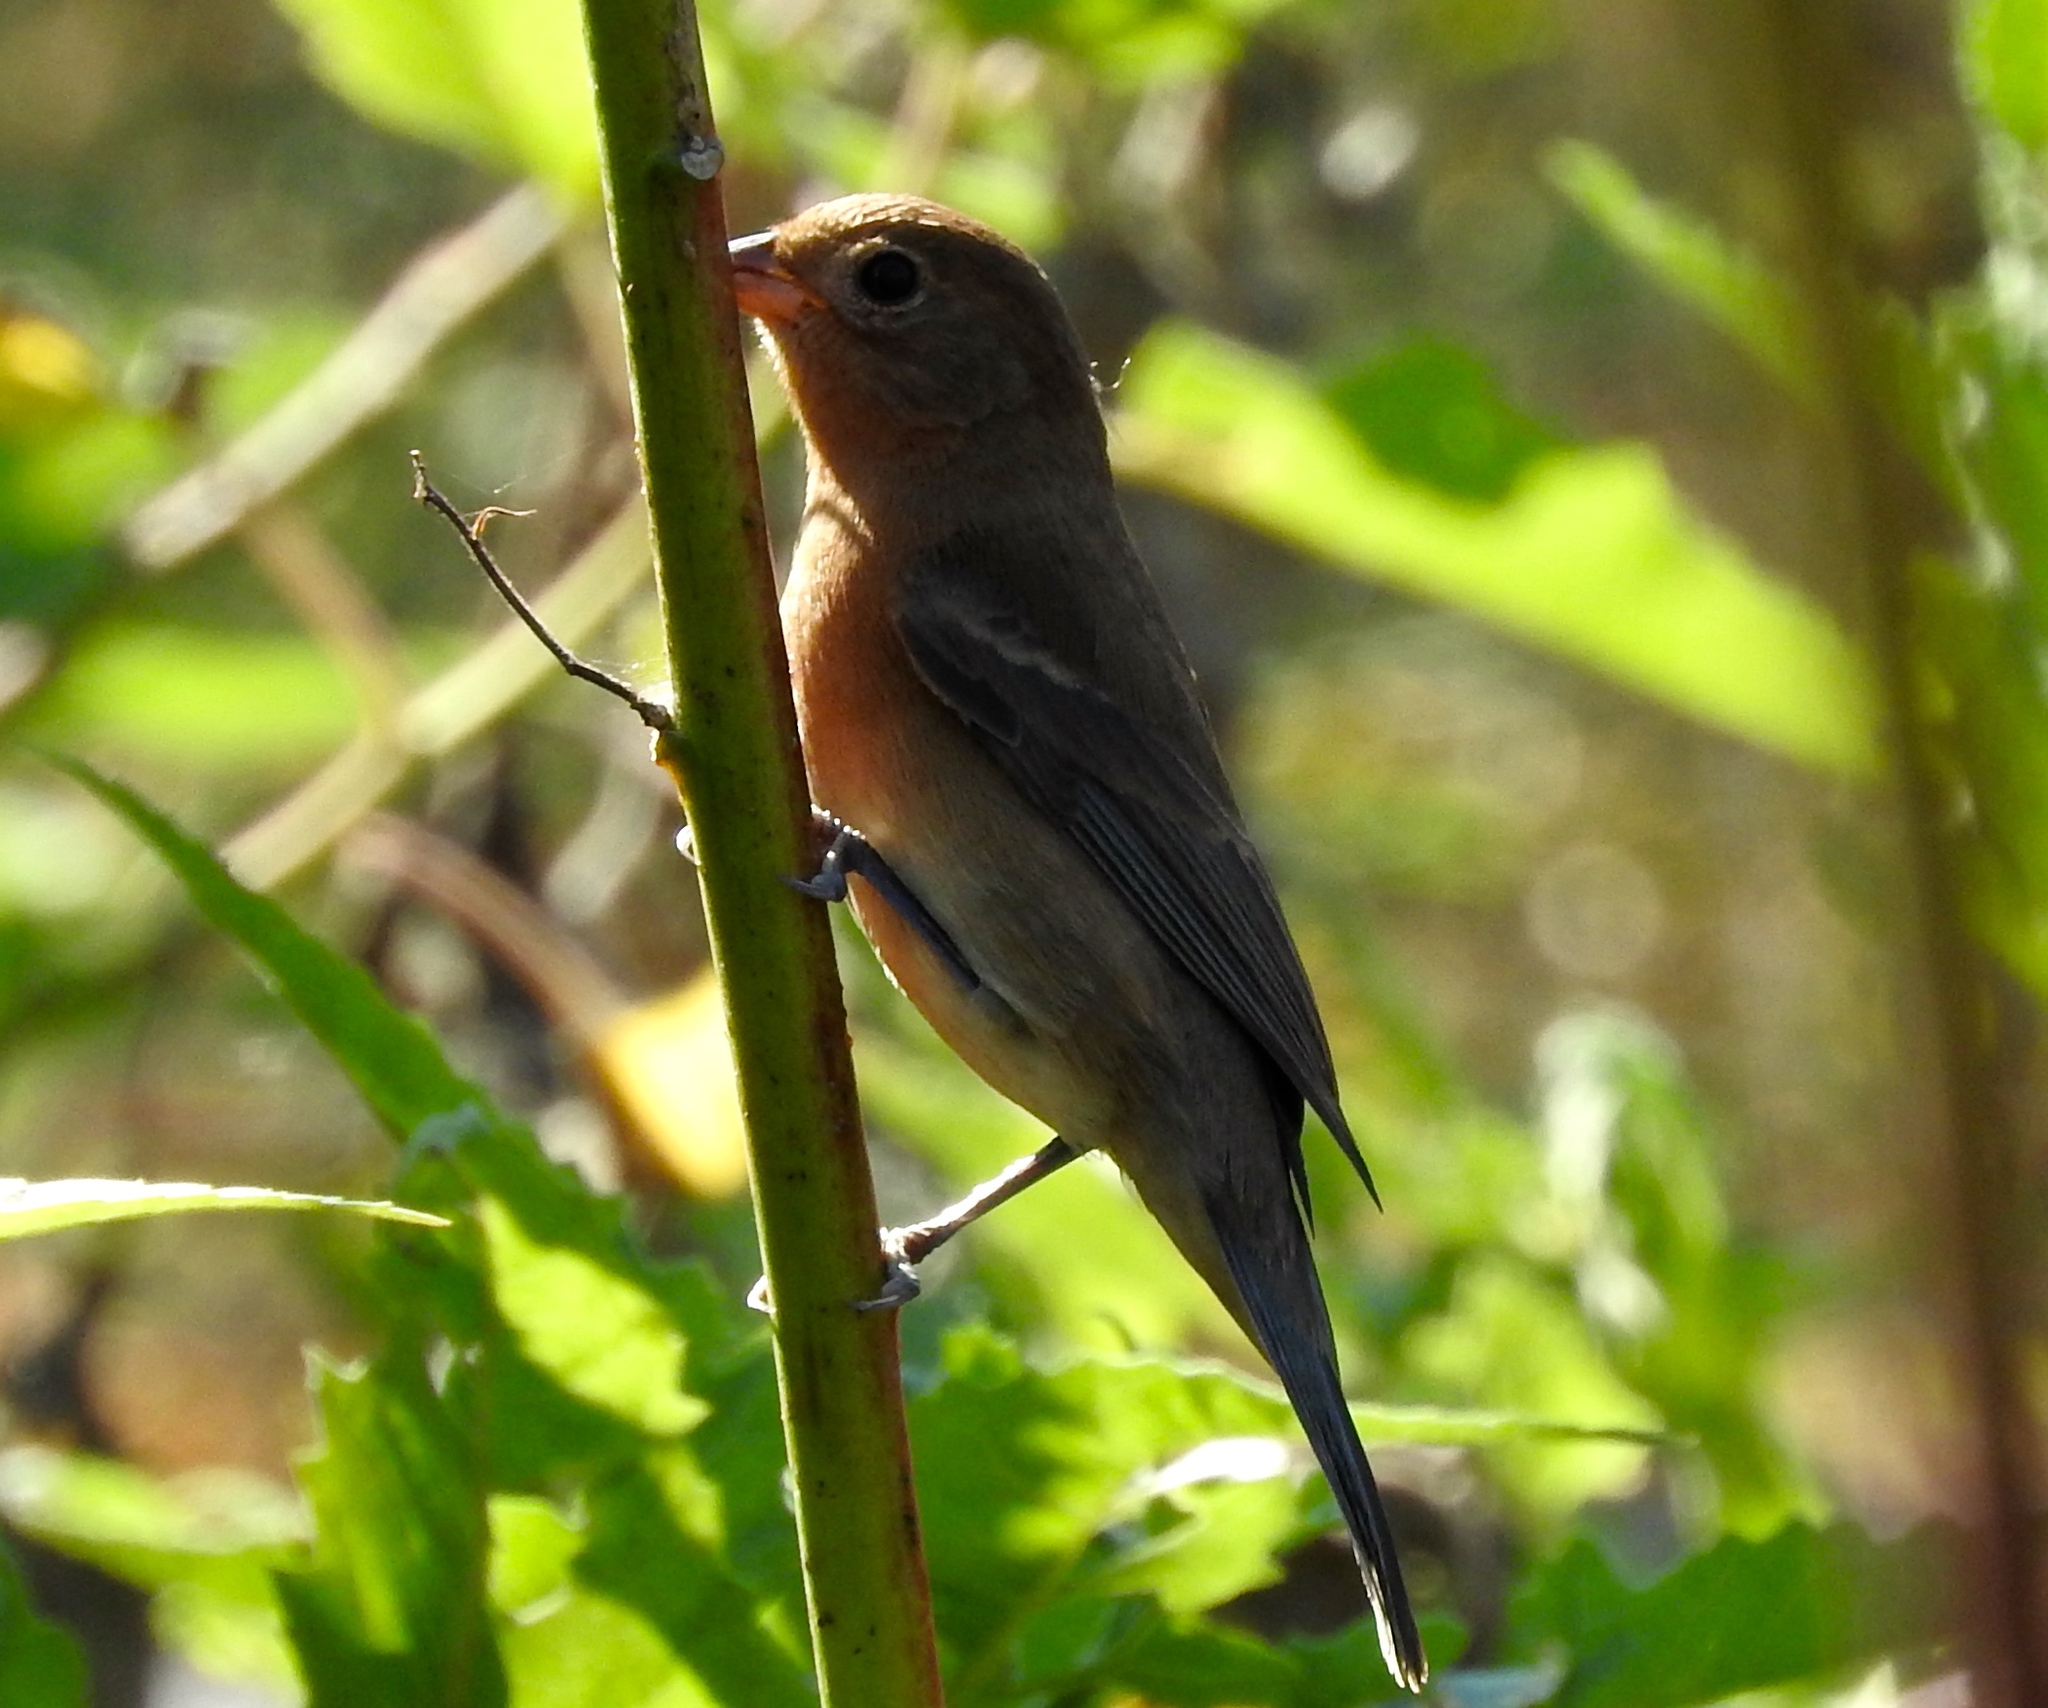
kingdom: Animalia
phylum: Chordata
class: Aves
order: Passeriformes
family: Cardinalidae
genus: Passerina
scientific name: Passerina amoena
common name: Lazuli bunting
